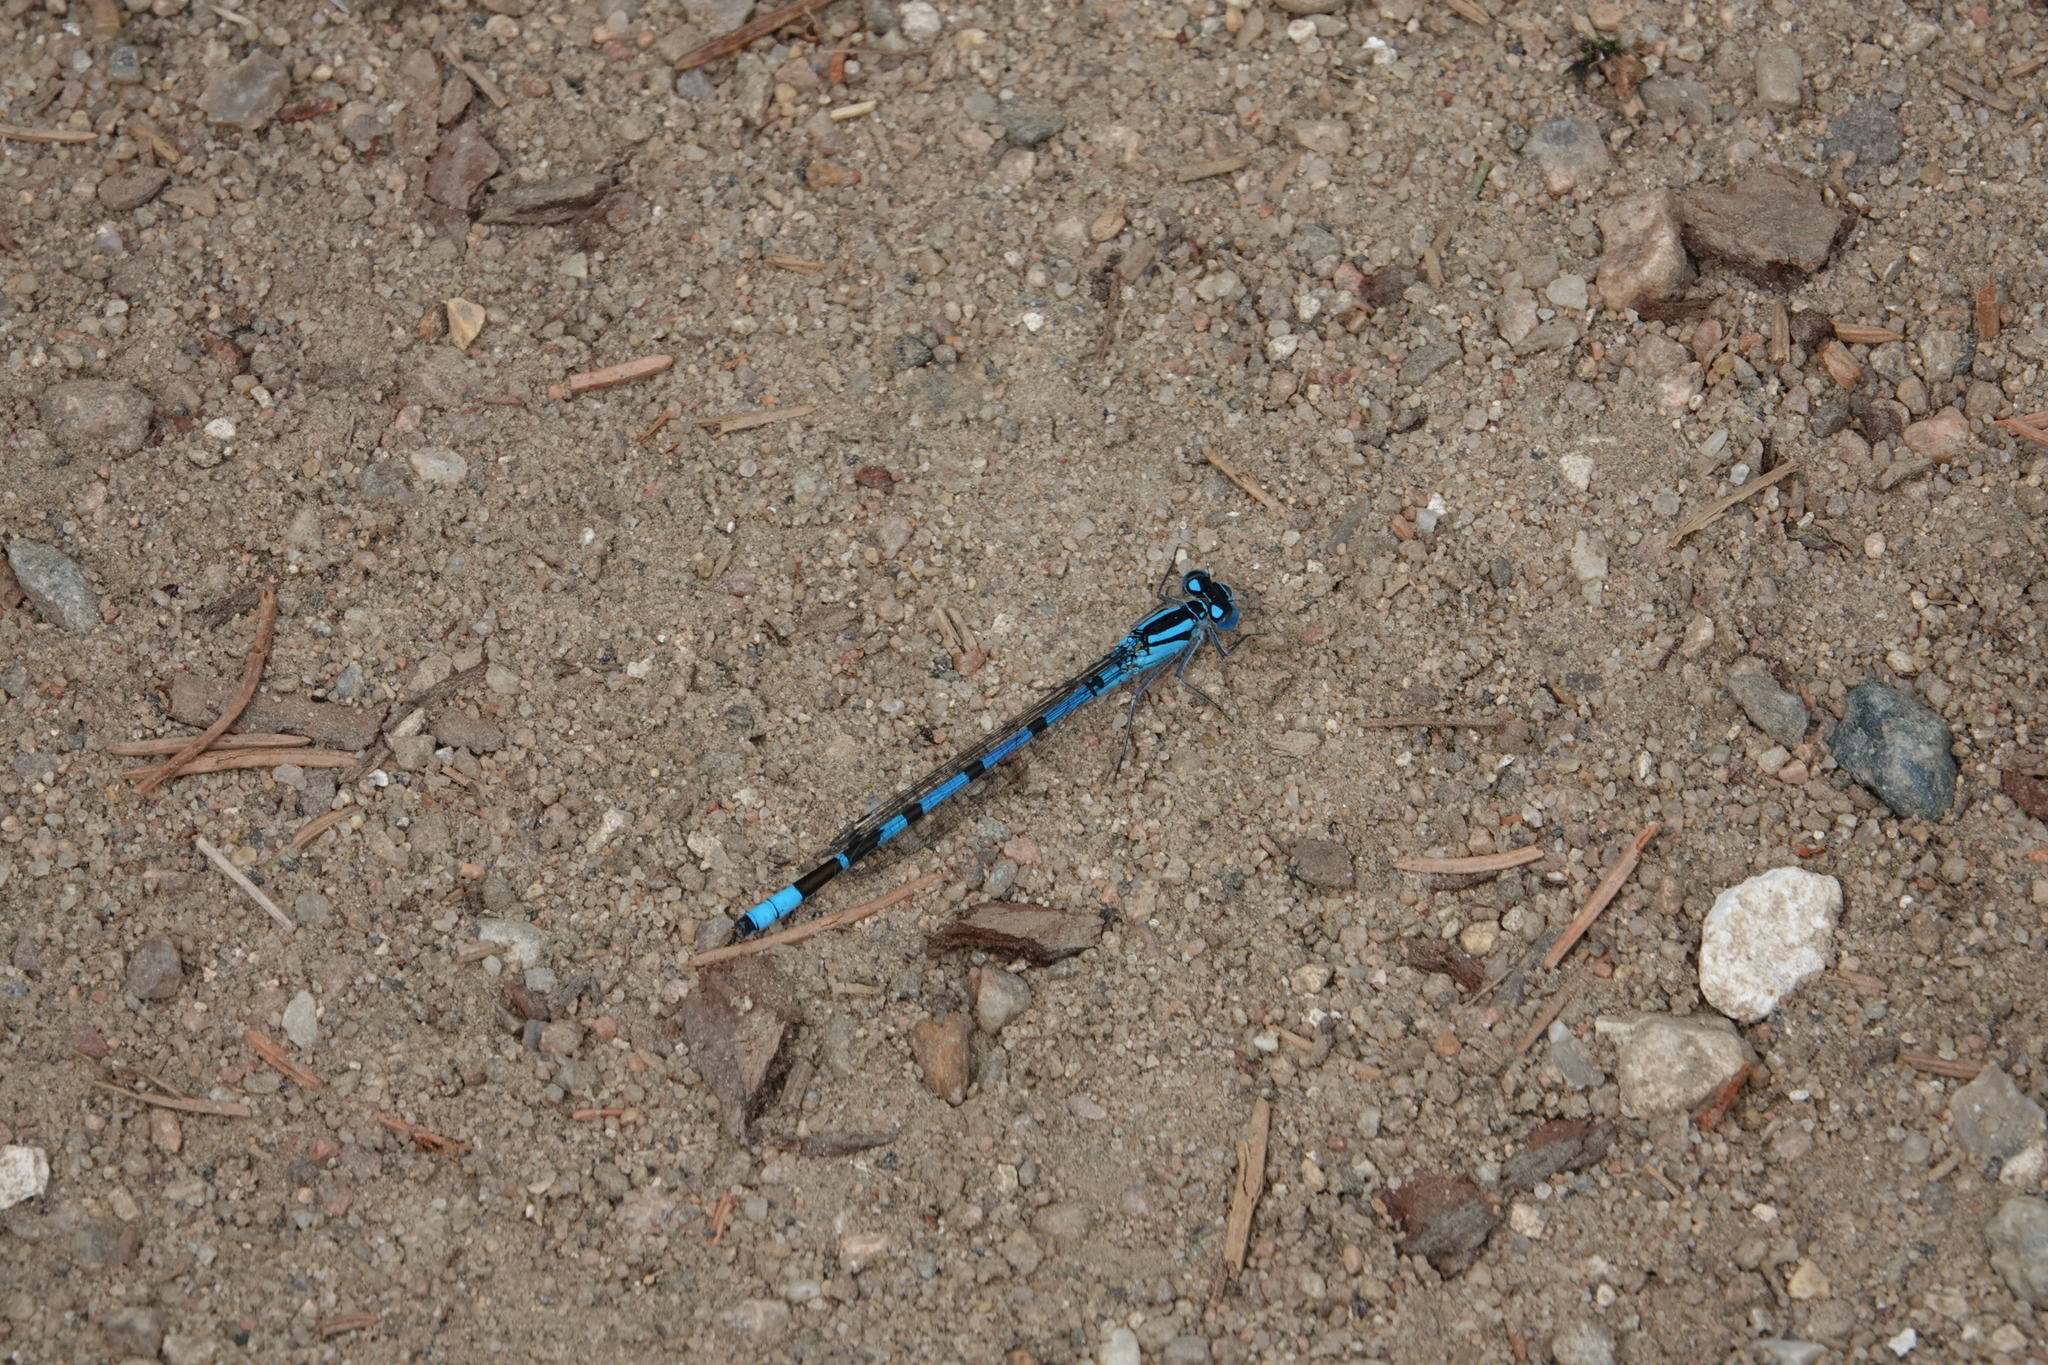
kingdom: Animalia
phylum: Arthropoda
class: Insecta
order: Odonata
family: Coenagrionidae
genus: Enallagma
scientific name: Enallagma cyathigerum
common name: Common blue damselfly
